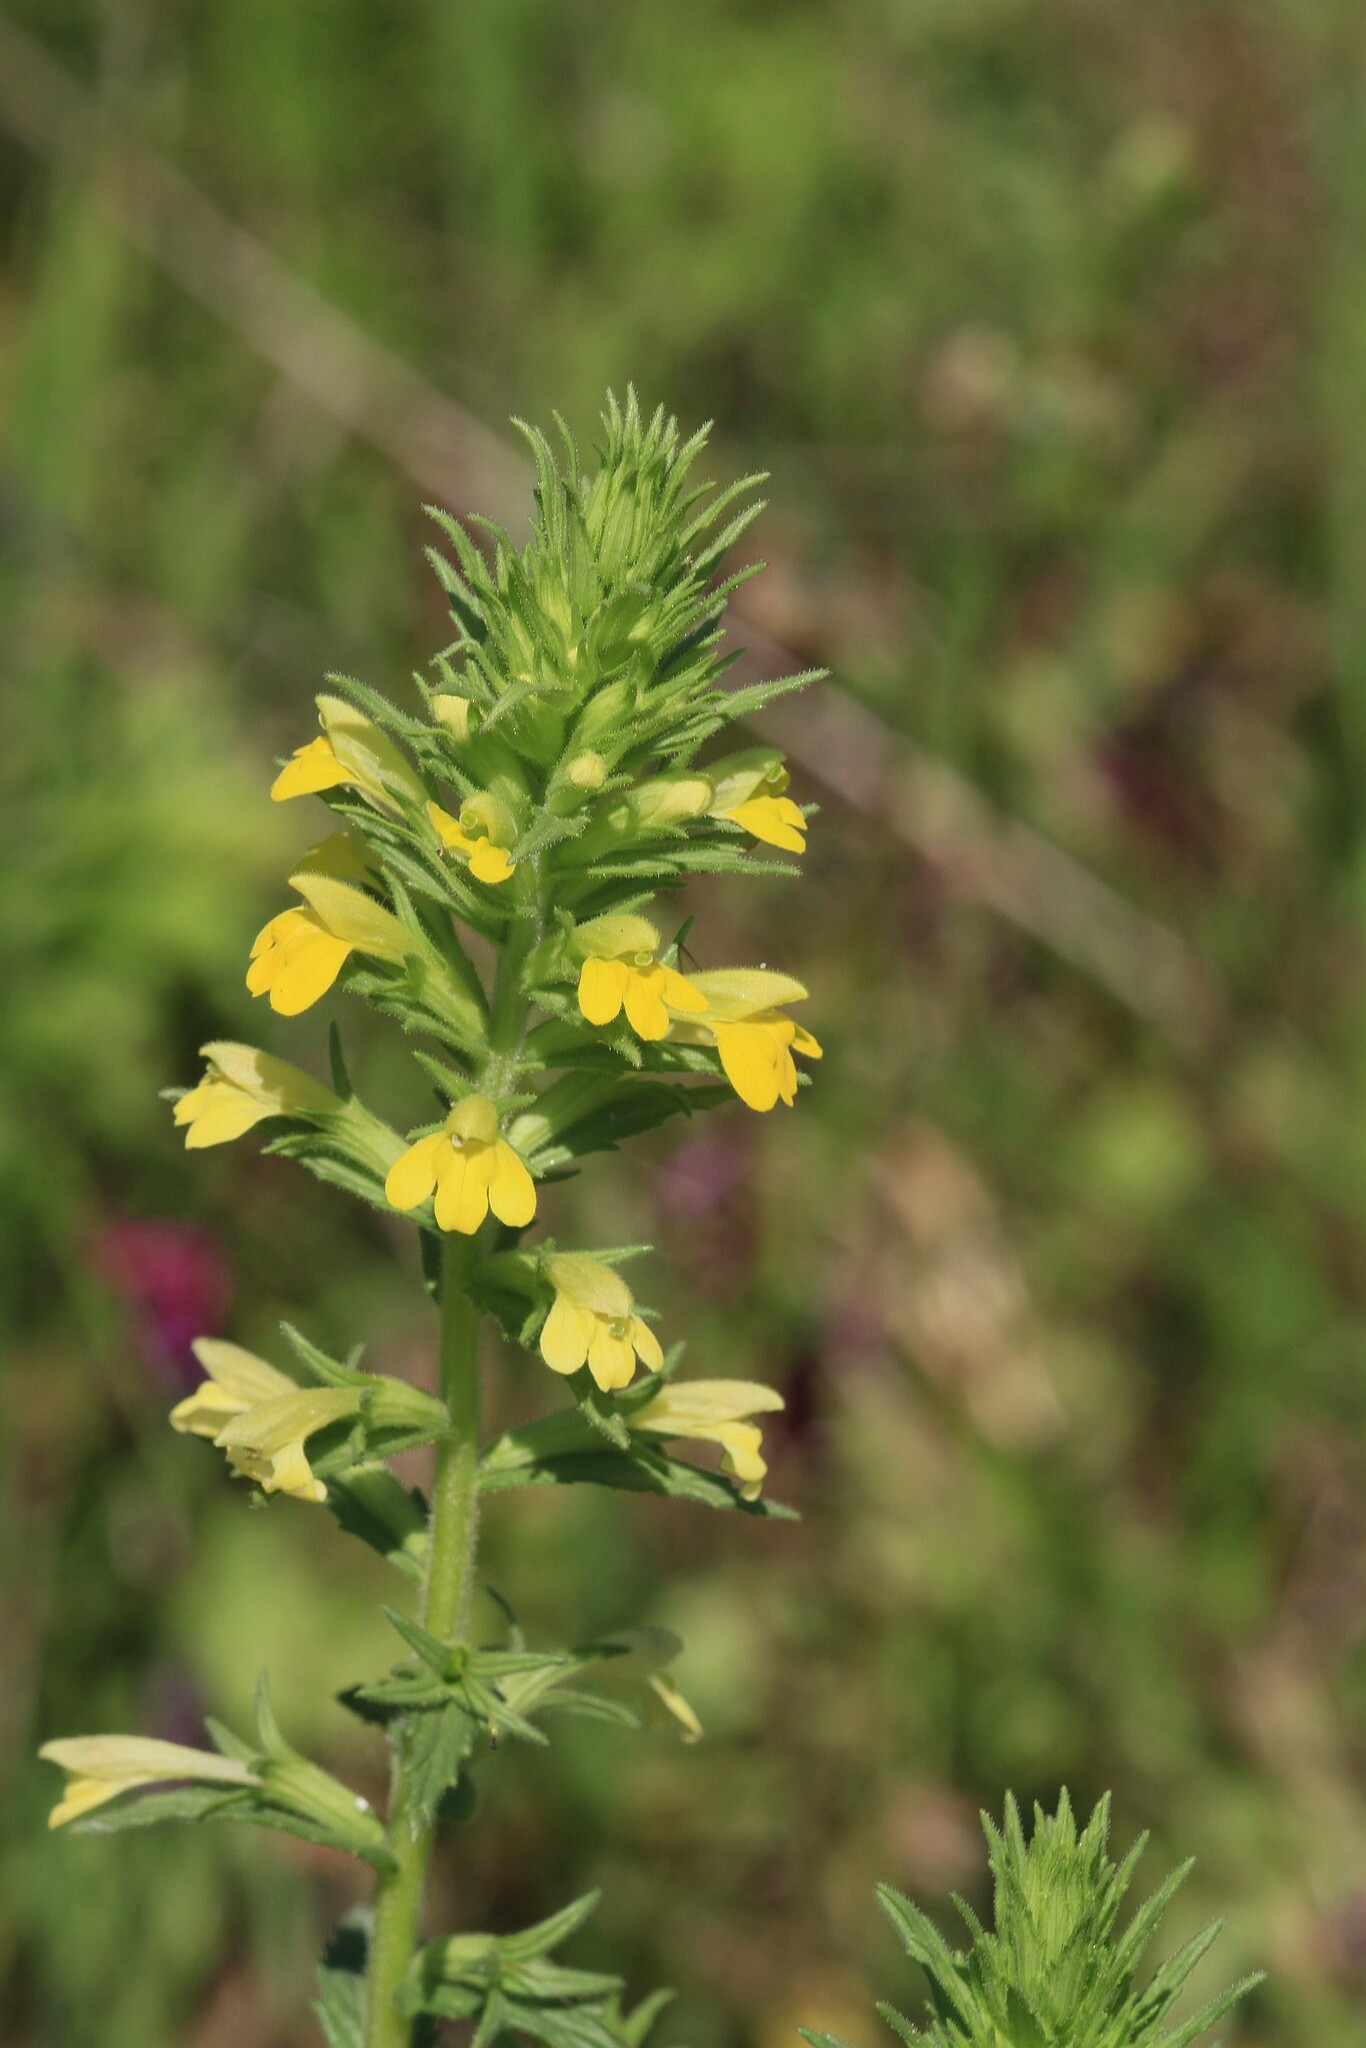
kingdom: Plantae
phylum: Tracheophyta
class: Magnoliopsida
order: Lamiales
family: Orobanchaceae
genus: Bellardia
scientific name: Bellardia viscosa
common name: Sticky parentucellia
